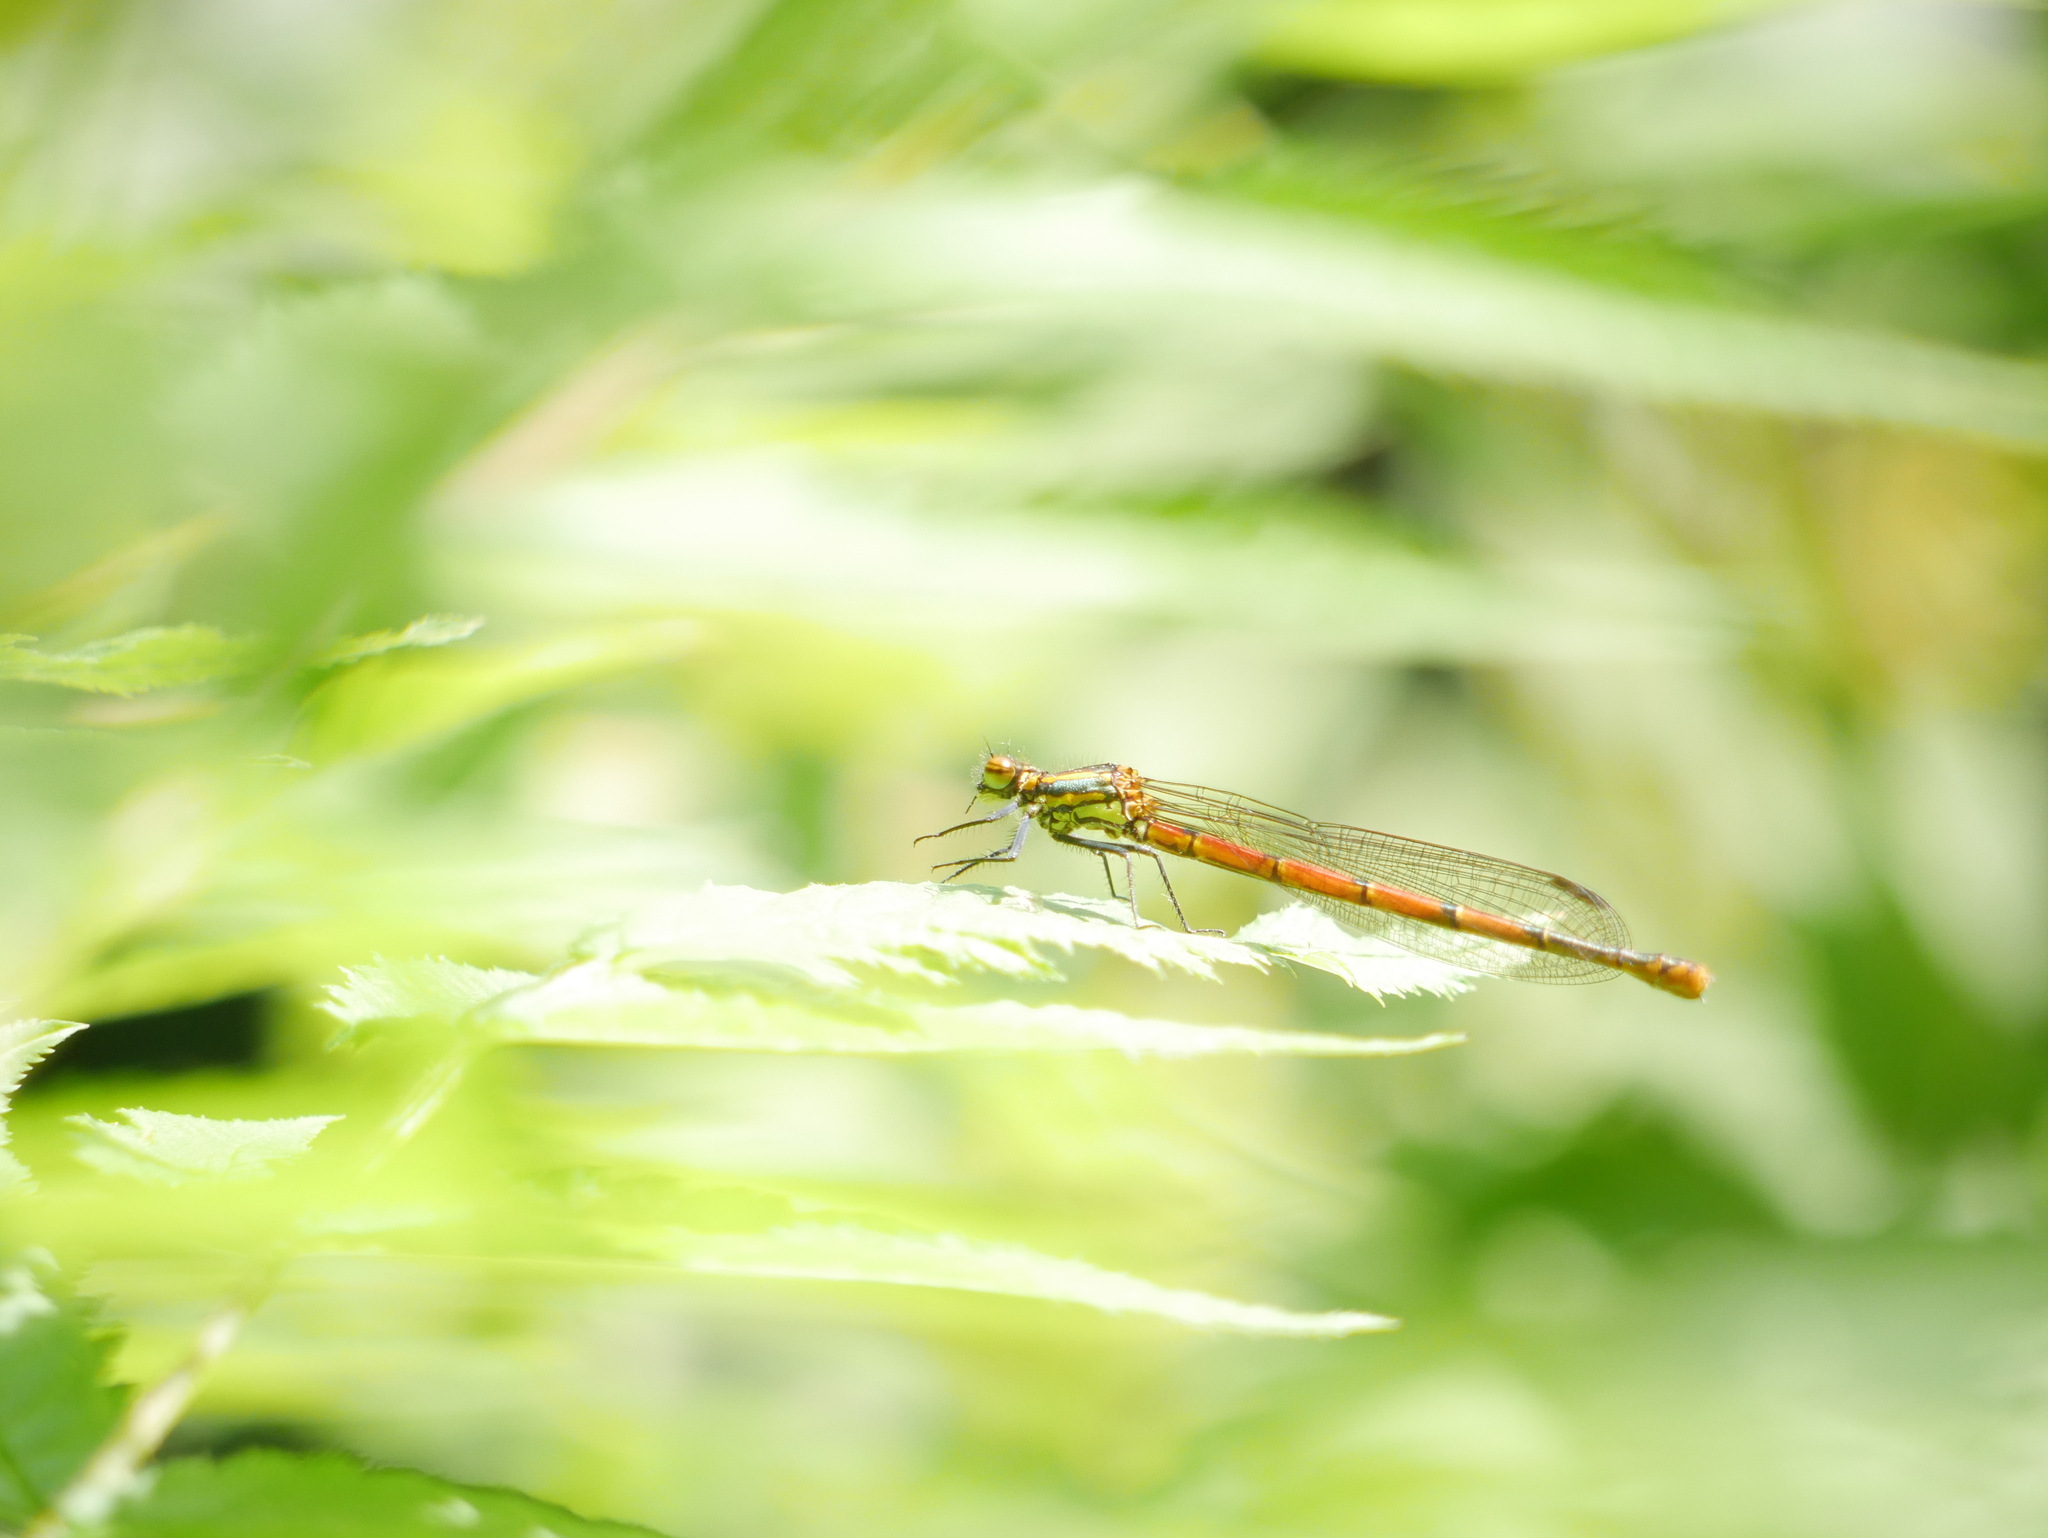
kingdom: Animalia
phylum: Arthropoda
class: Insecta
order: Odonata
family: Coenagrionidae
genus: Pyrrhosoma
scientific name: Pyrrhosoma nymphula
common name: Large red damsel
